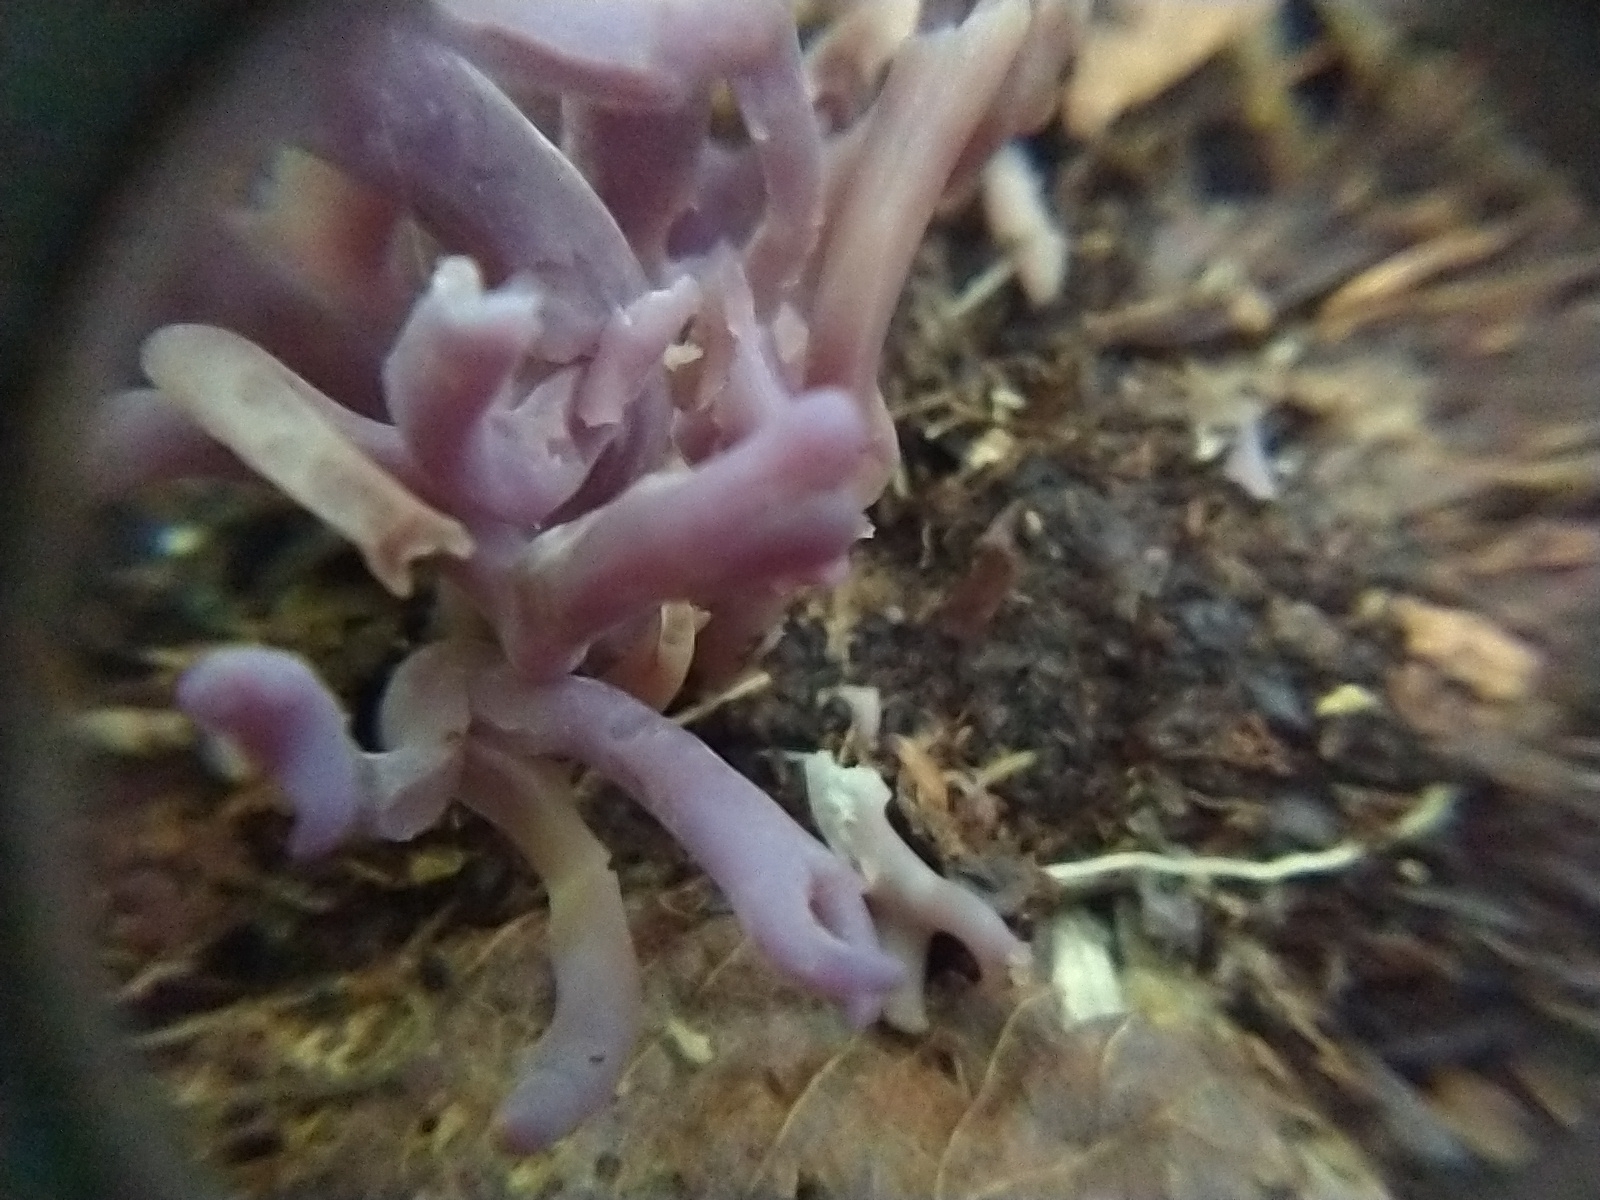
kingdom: Fungi
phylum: Basidiomycota
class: Agaricomycetes
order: Agaricales
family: Clavariaceae
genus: Clavaria
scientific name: Clavaria zollingeri
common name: Violet coral
